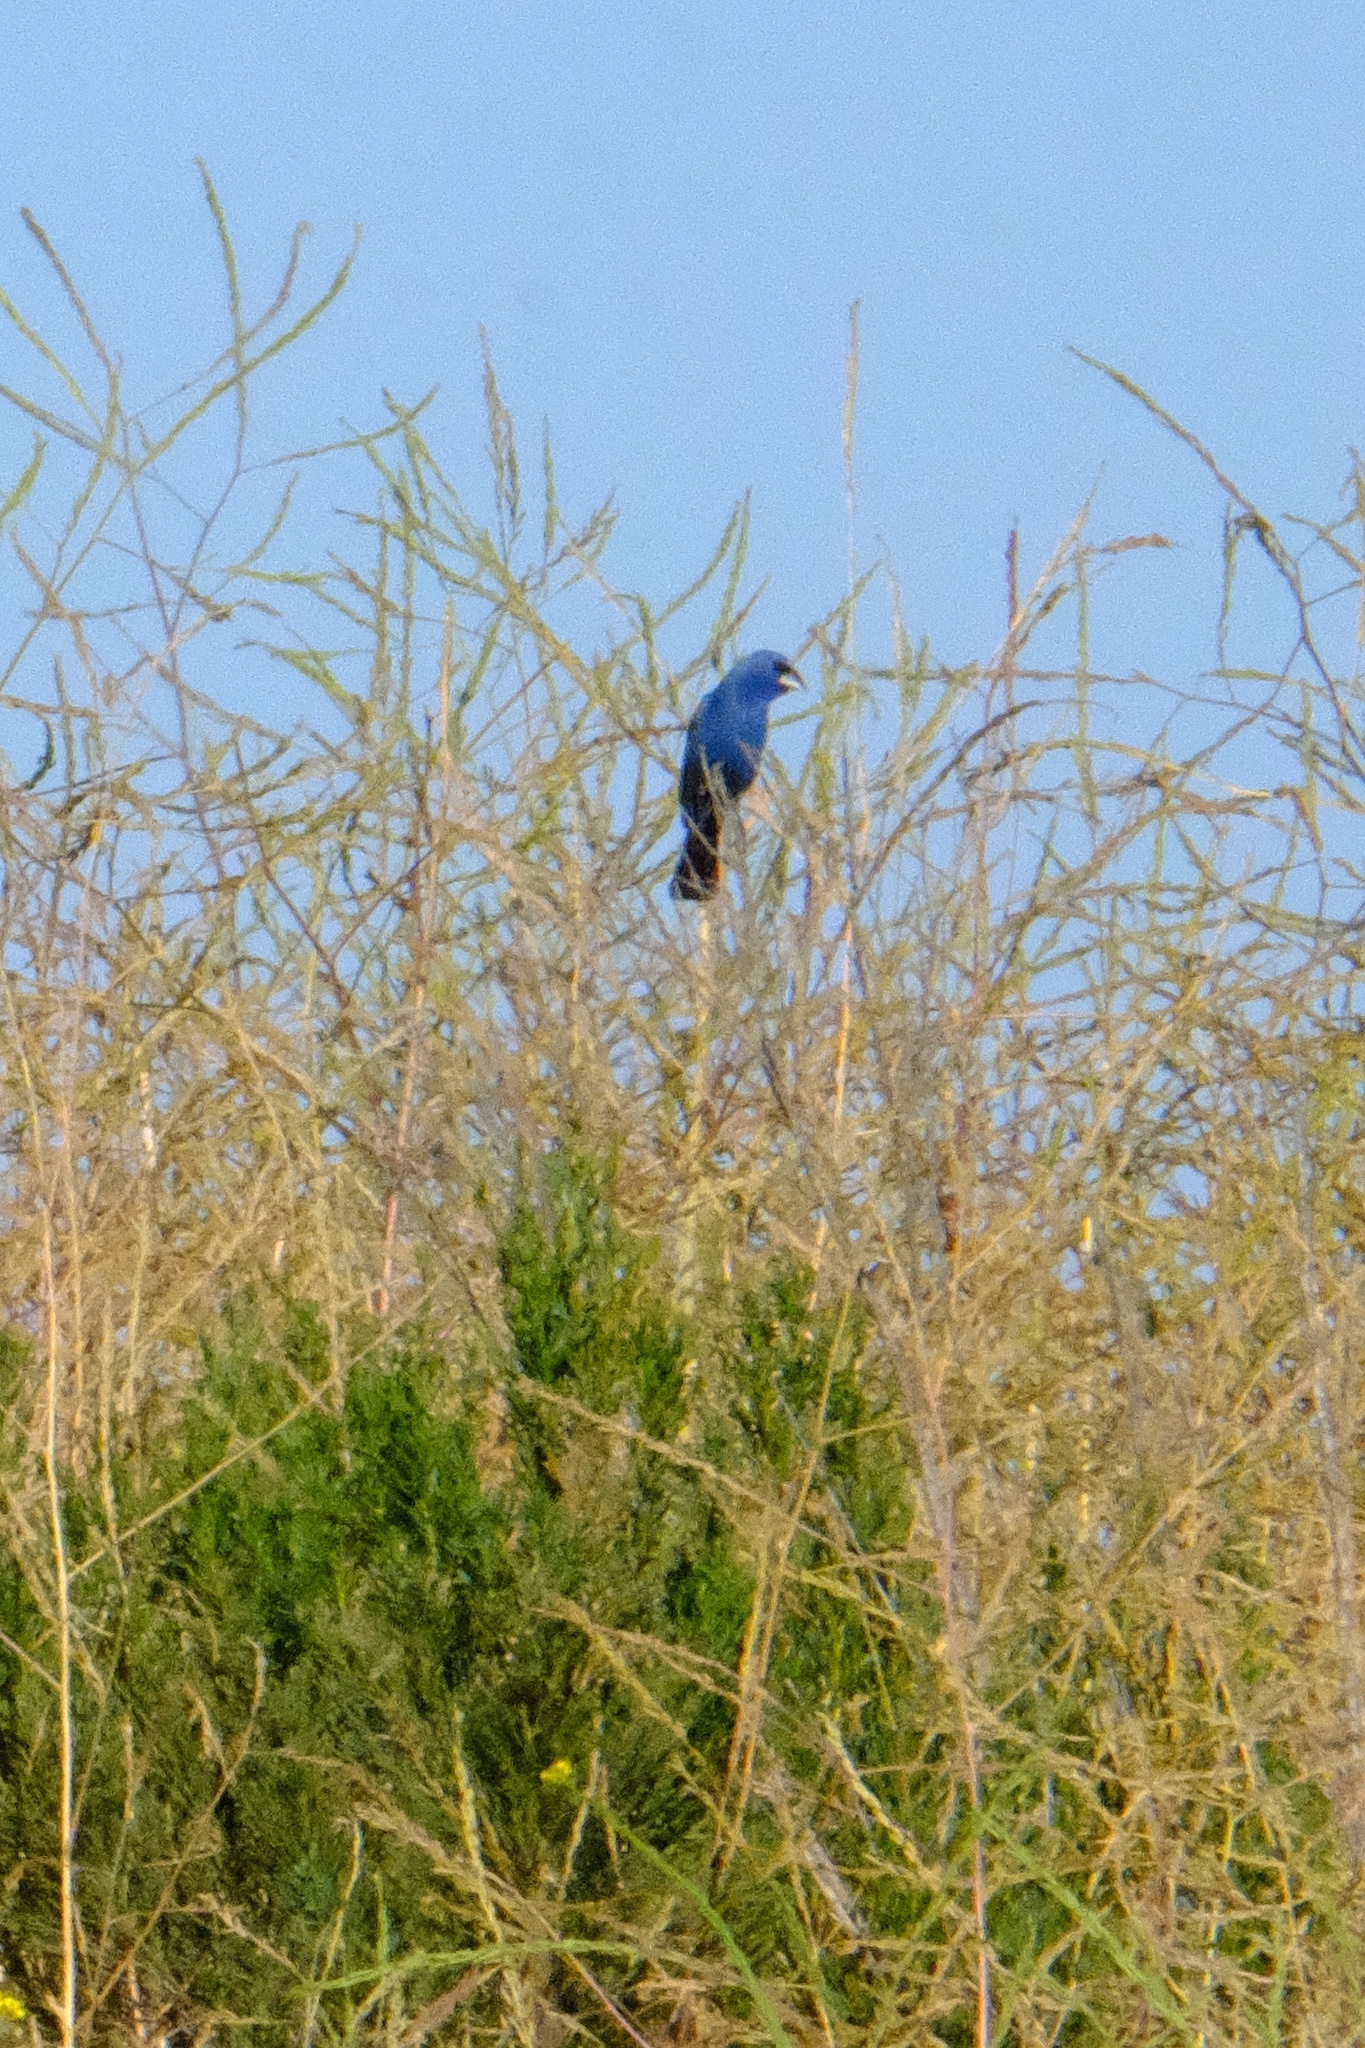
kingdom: Animalia
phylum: Chordata
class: Aves
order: Passeriformes
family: Cardinalidae
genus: Passerina
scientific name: Passerina caerulea
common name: Blue grosbeak
